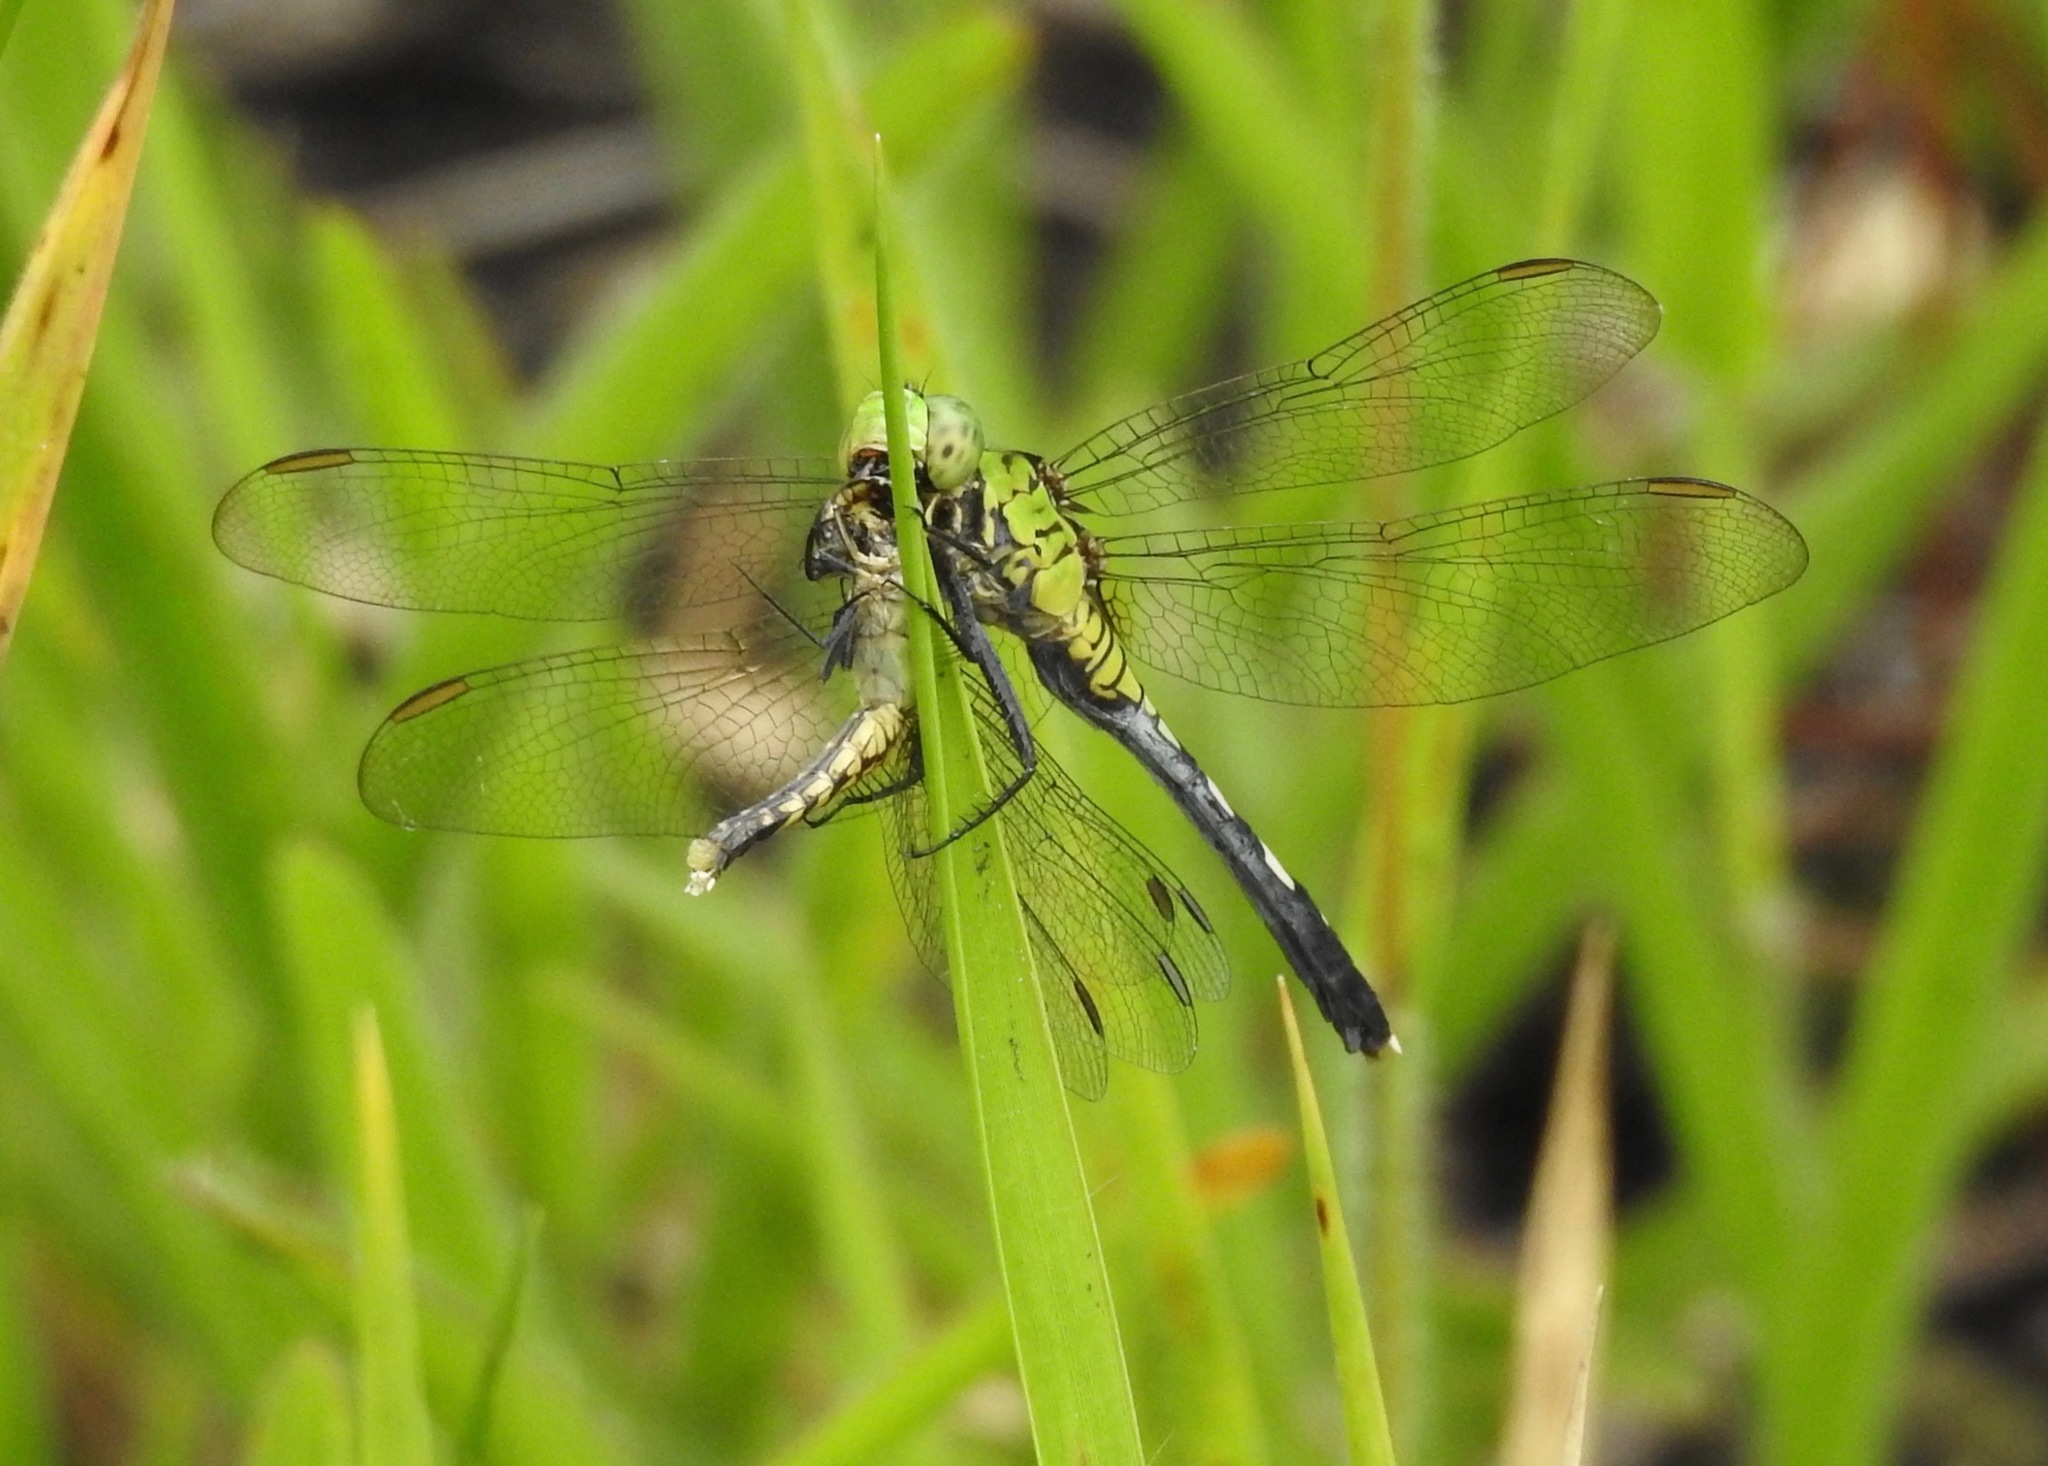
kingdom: Animalia
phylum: Arthropoda
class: Insecta
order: Odonata
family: Libellulidae
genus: Erythemis
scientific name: Erythemis simplicicollis
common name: Eastern pondhawk
